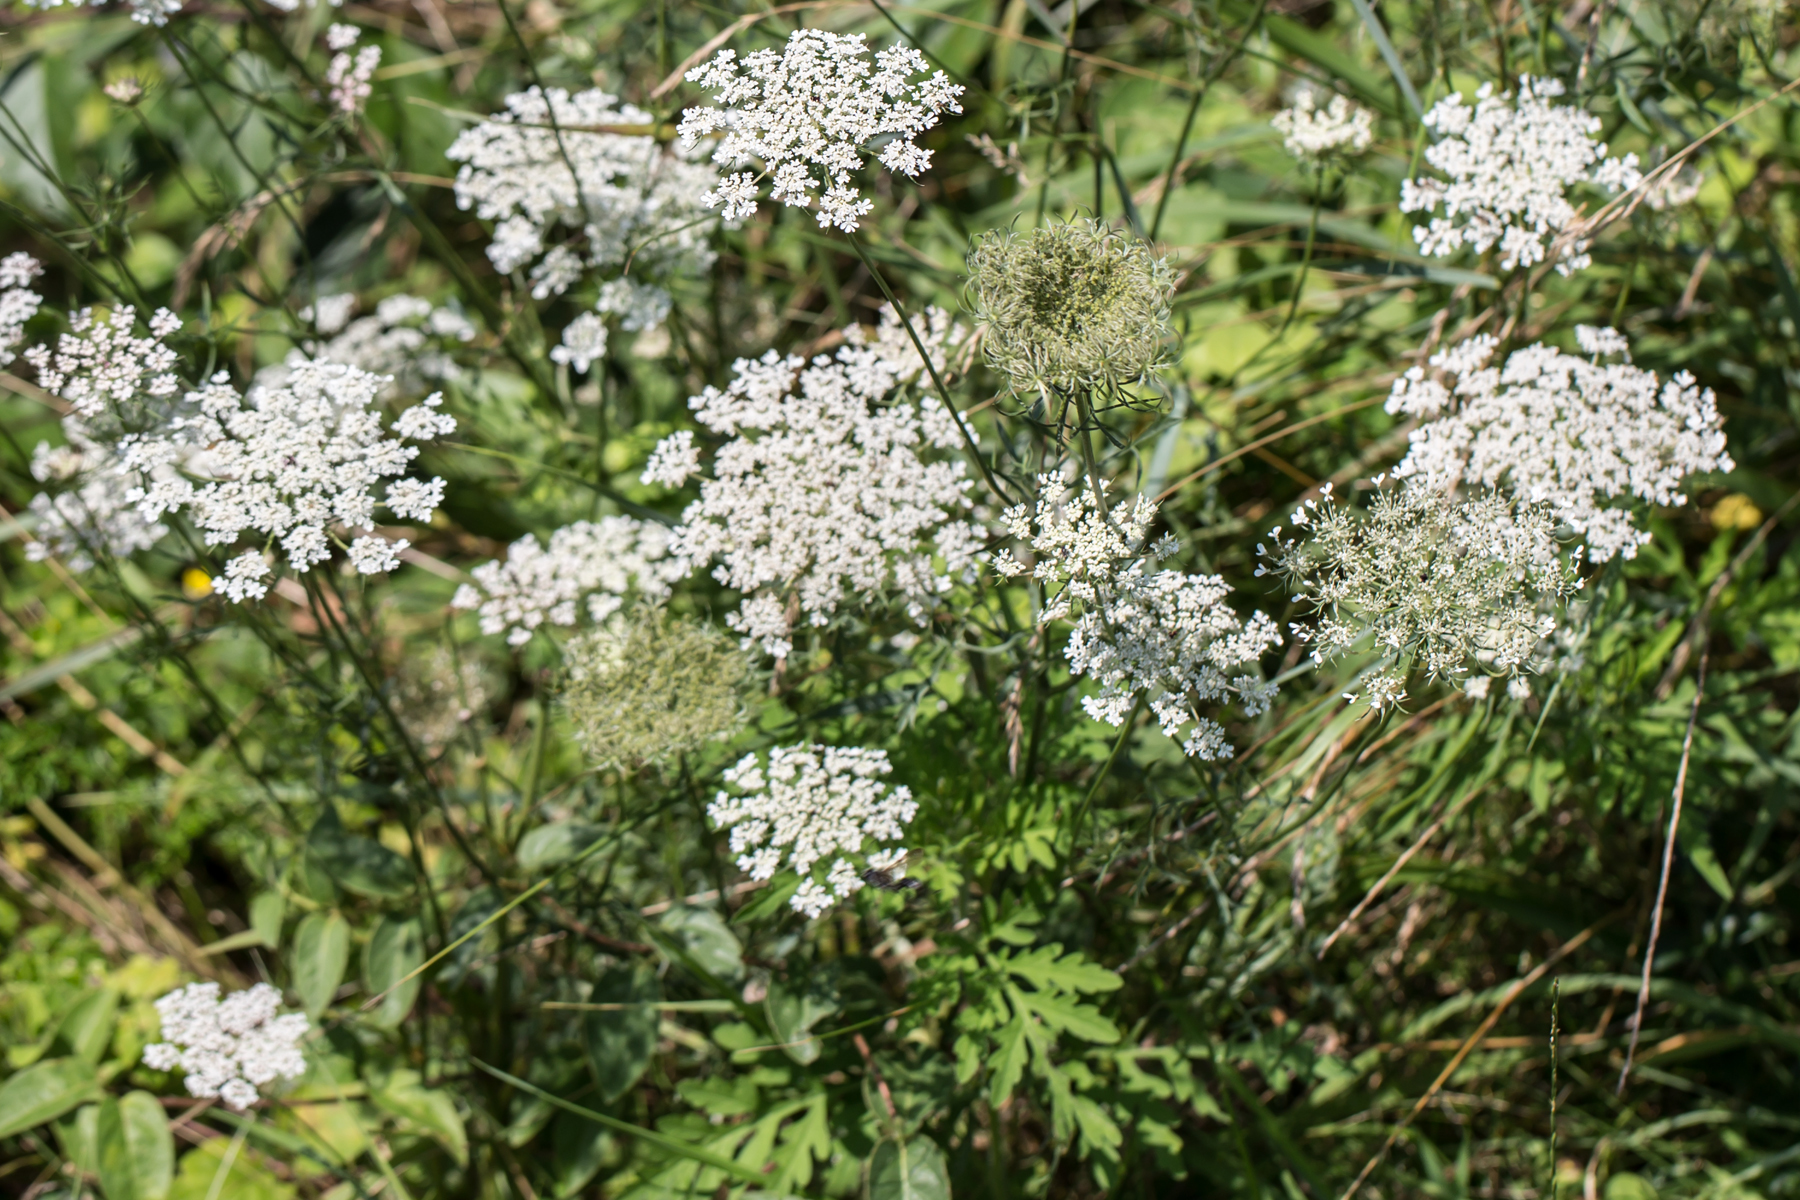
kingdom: Plantae
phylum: Tracheophyta
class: Magnoliopsida
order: Apiales
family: Apiaceae
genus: Daucus
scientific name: Daucus carota
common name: Wild carrot
